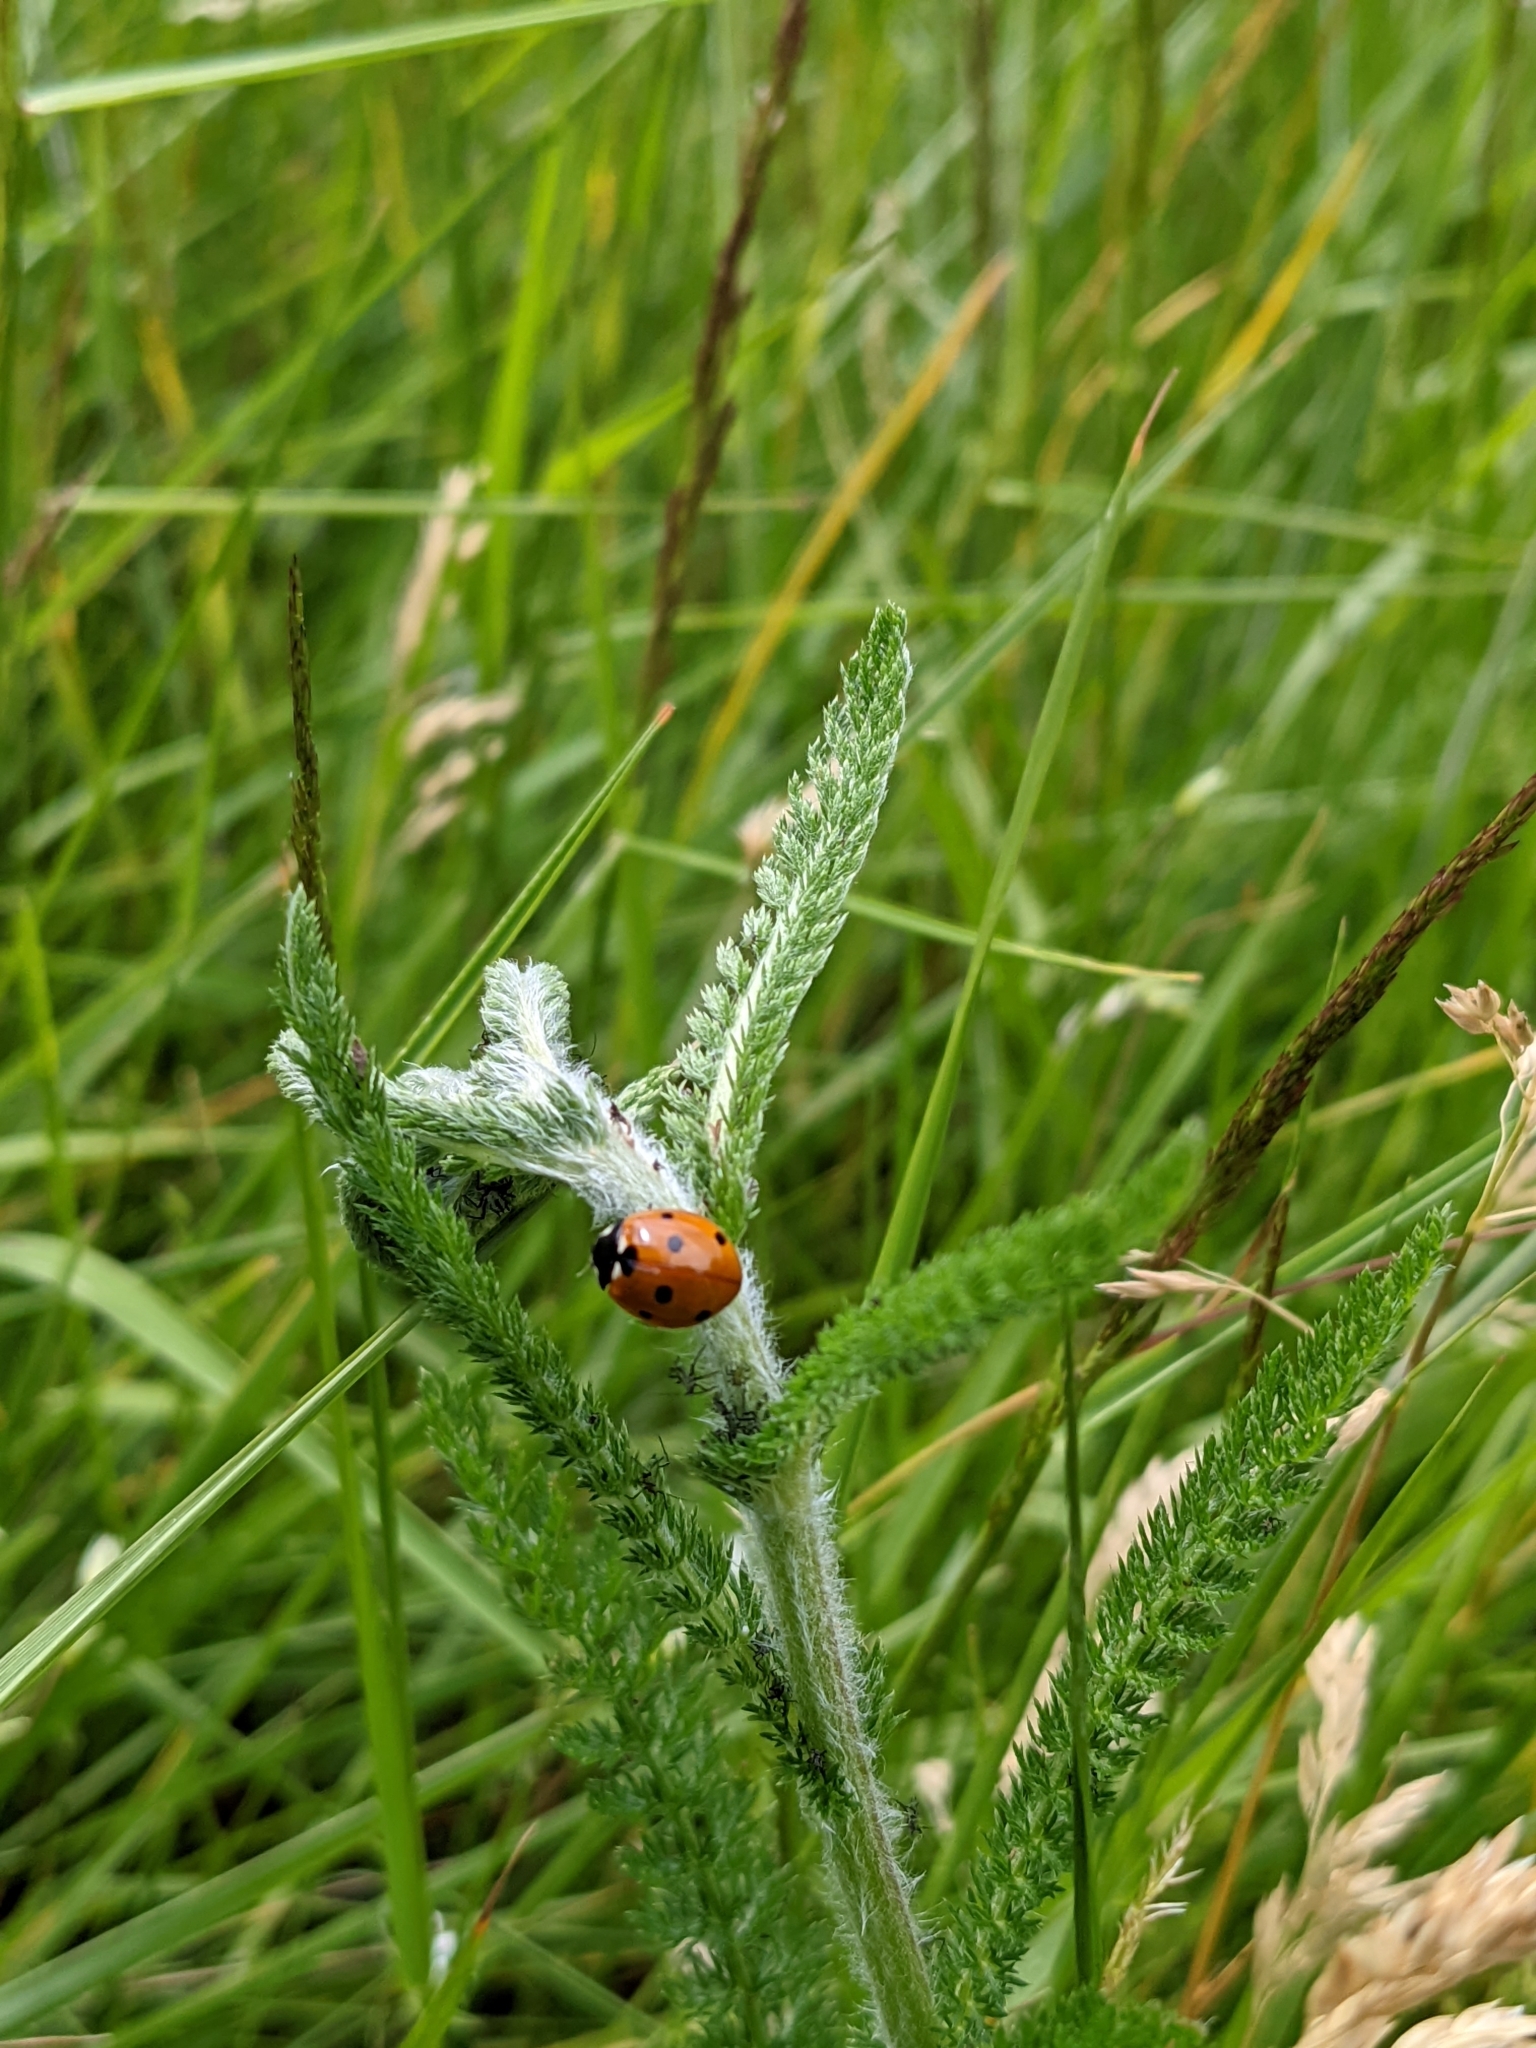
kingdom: Animalia
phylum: Arthropoda
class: Insecta
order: Coleoptera
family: Coccinellidae
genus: Coccinella
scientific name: Coccinella septempunctata
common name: Sevenspotted lady beetle
